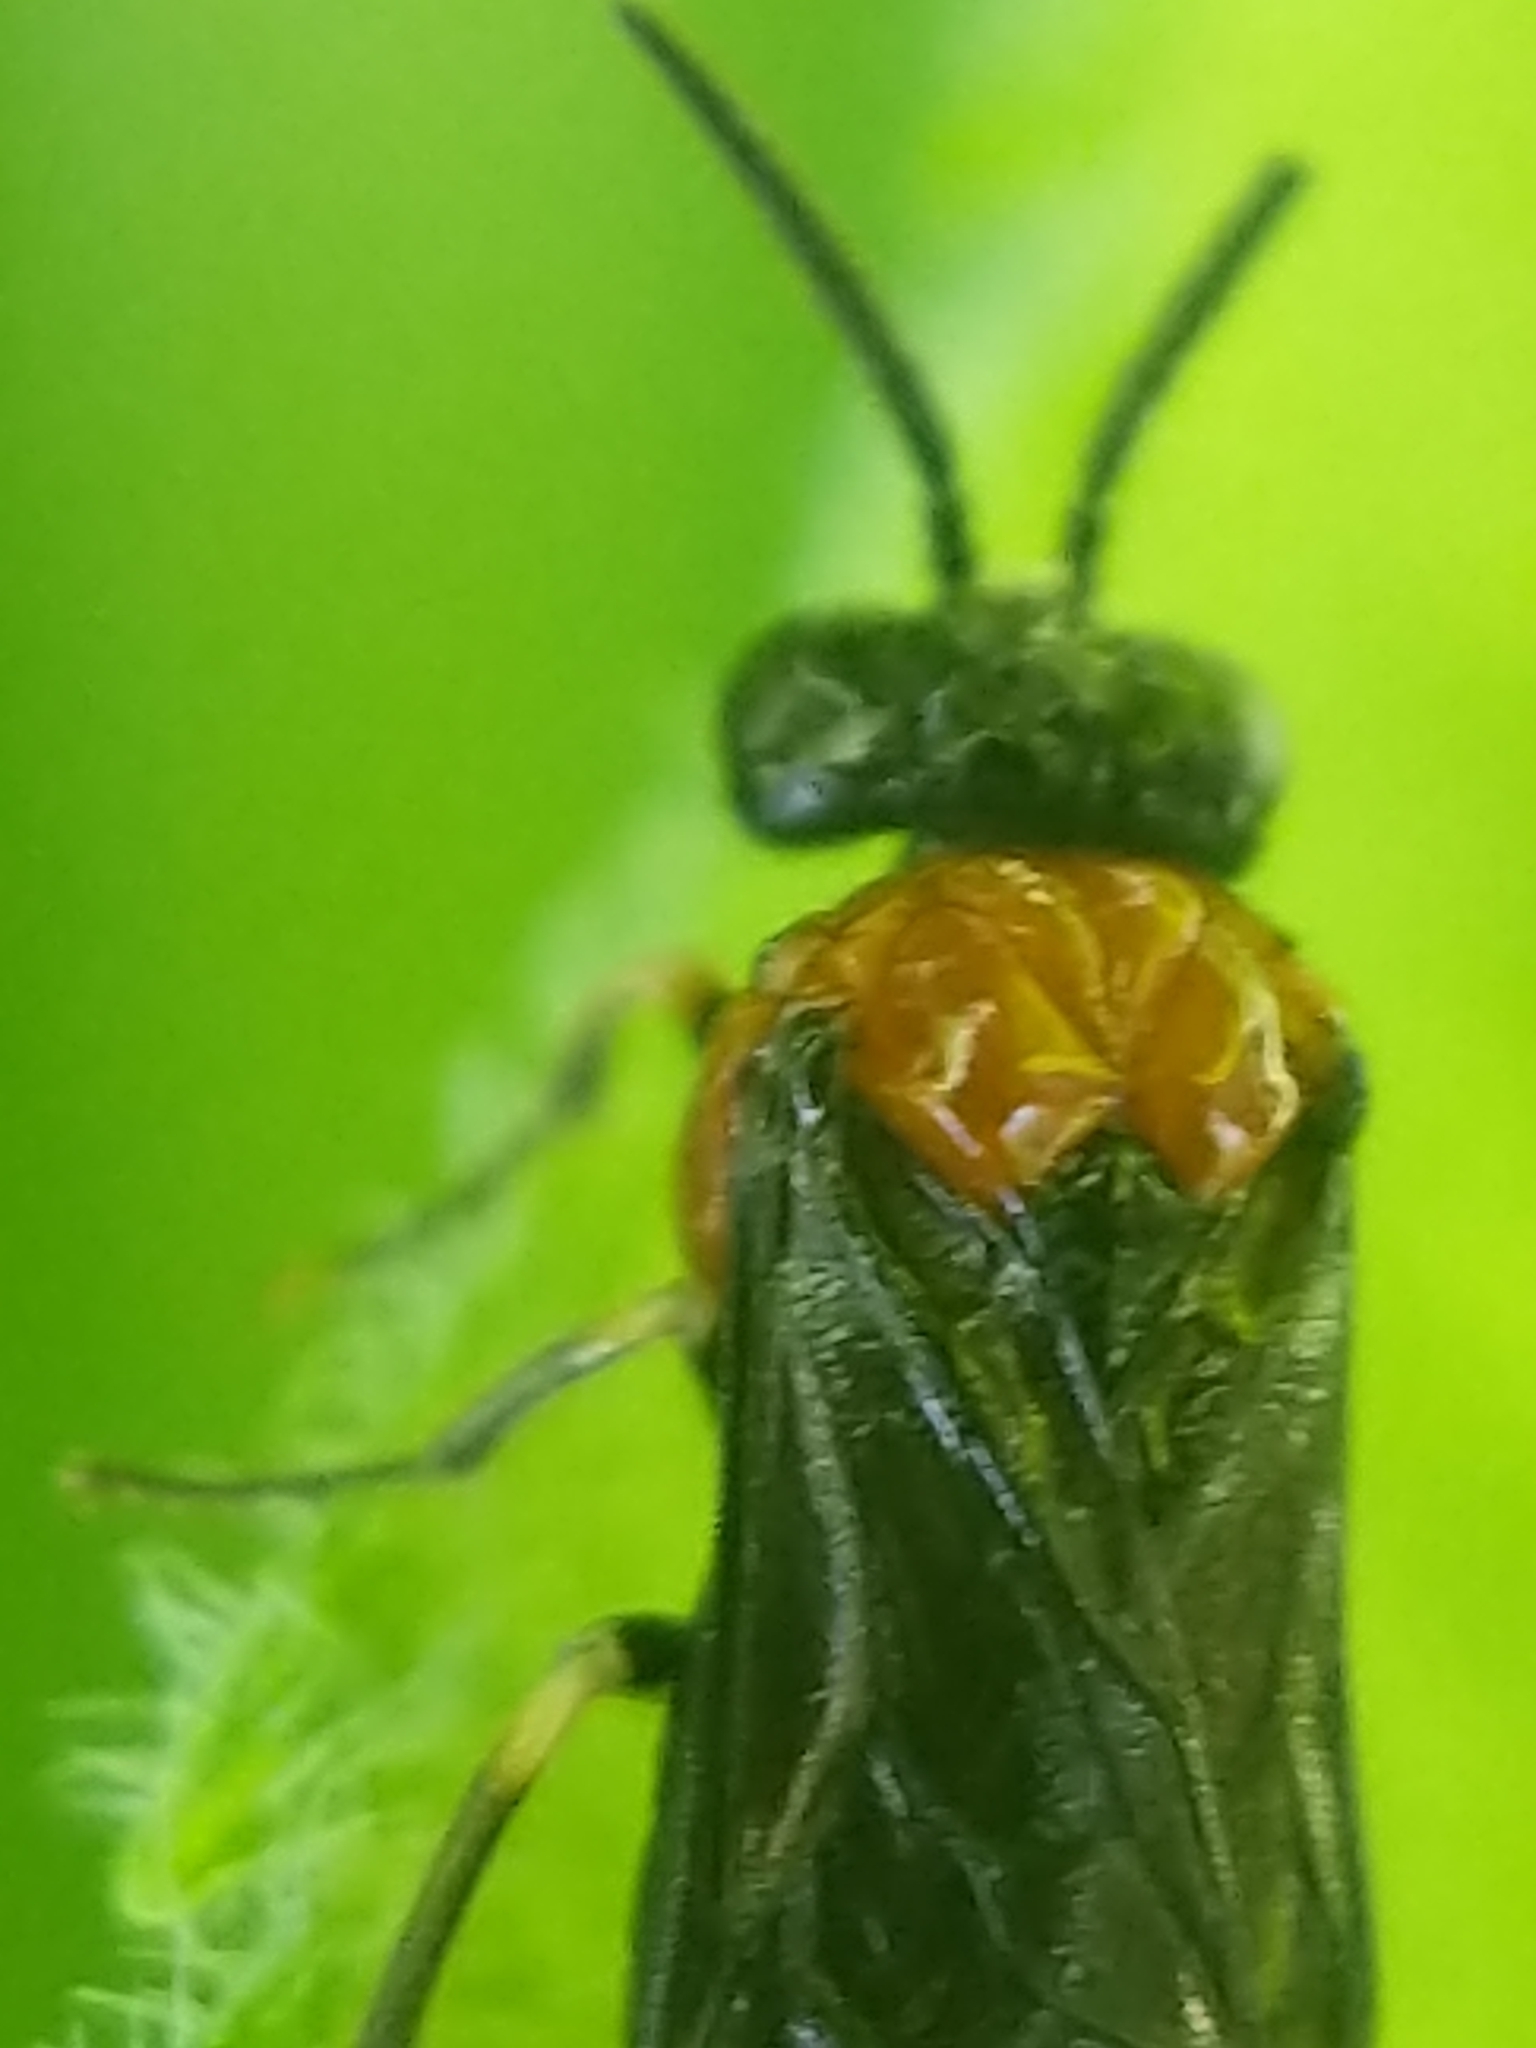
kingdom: Animalia
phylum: Arthropoda
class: Insecta
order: Hymenoptera
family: Tenthredinidae
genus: Eutomostethus
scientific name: Eutomostethus ephippium
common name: Tenthredid wasp
